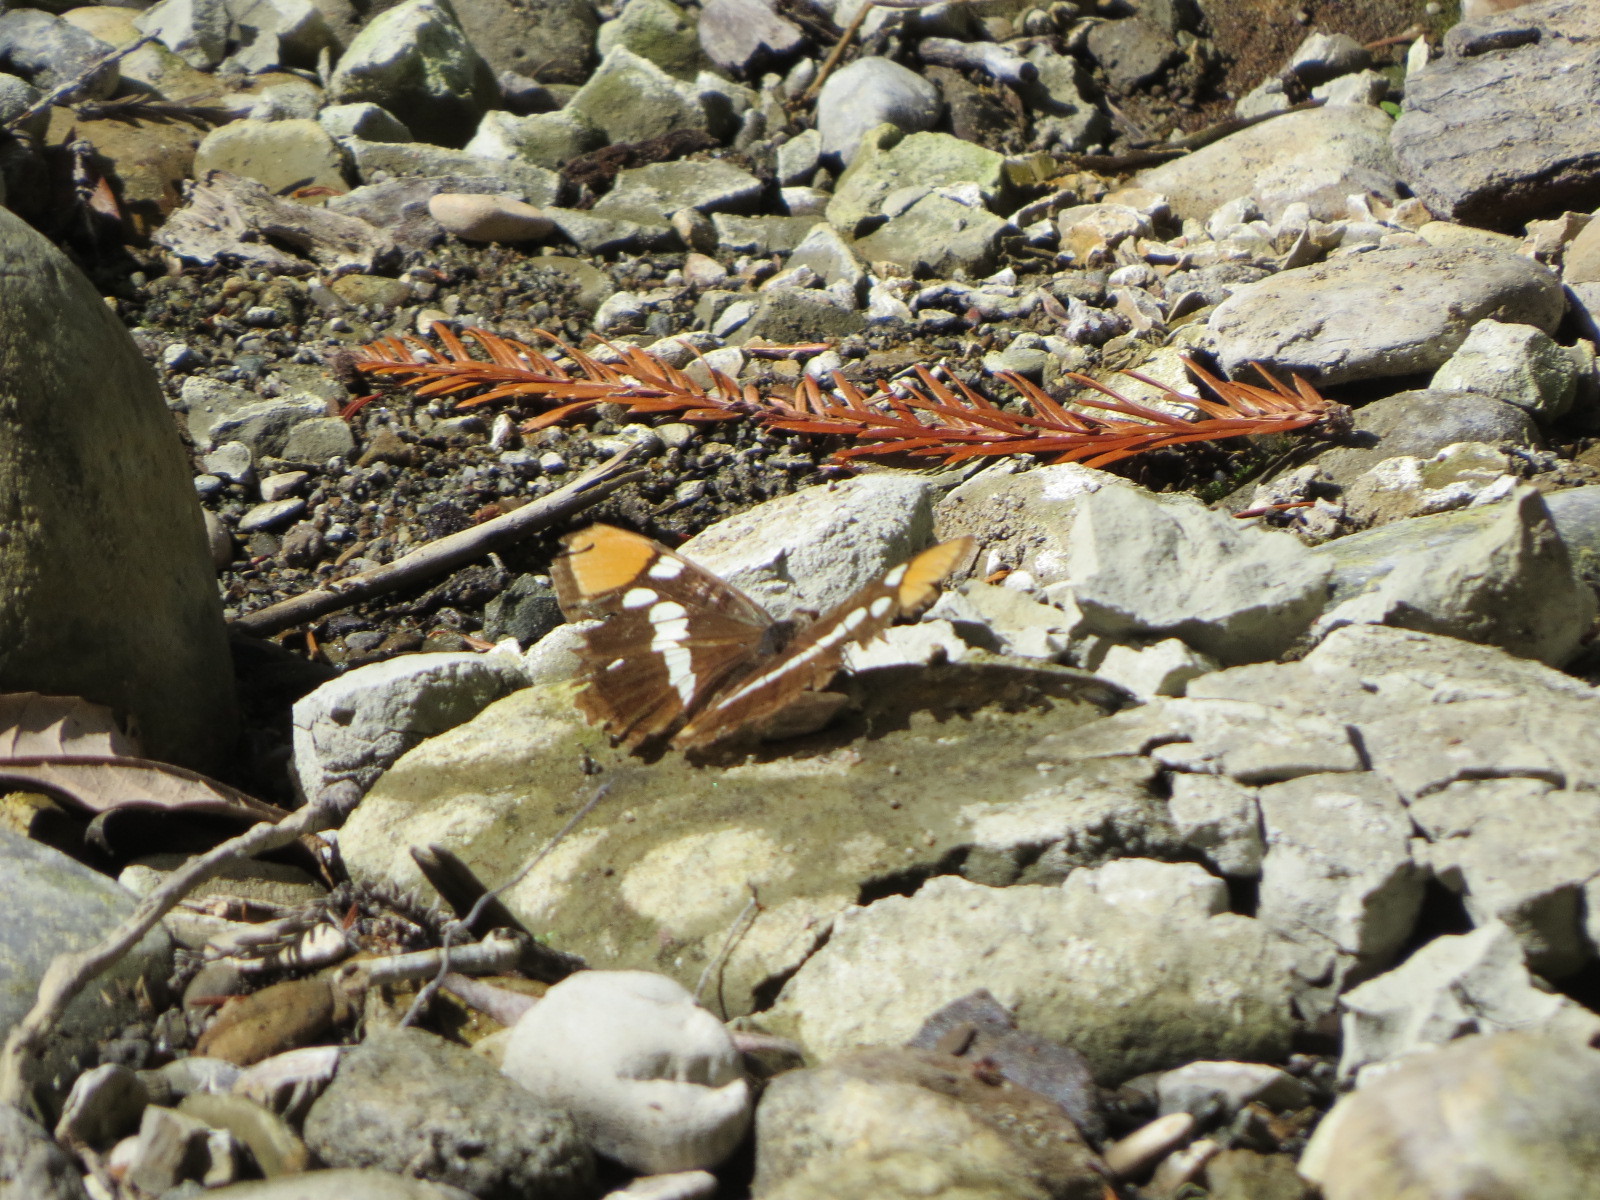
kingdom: Animalia
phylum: Arthropoda
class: Insecta
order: Lepidoptera
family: Nymphalidae
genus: Limenitis
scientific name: Limenitis bredowii
